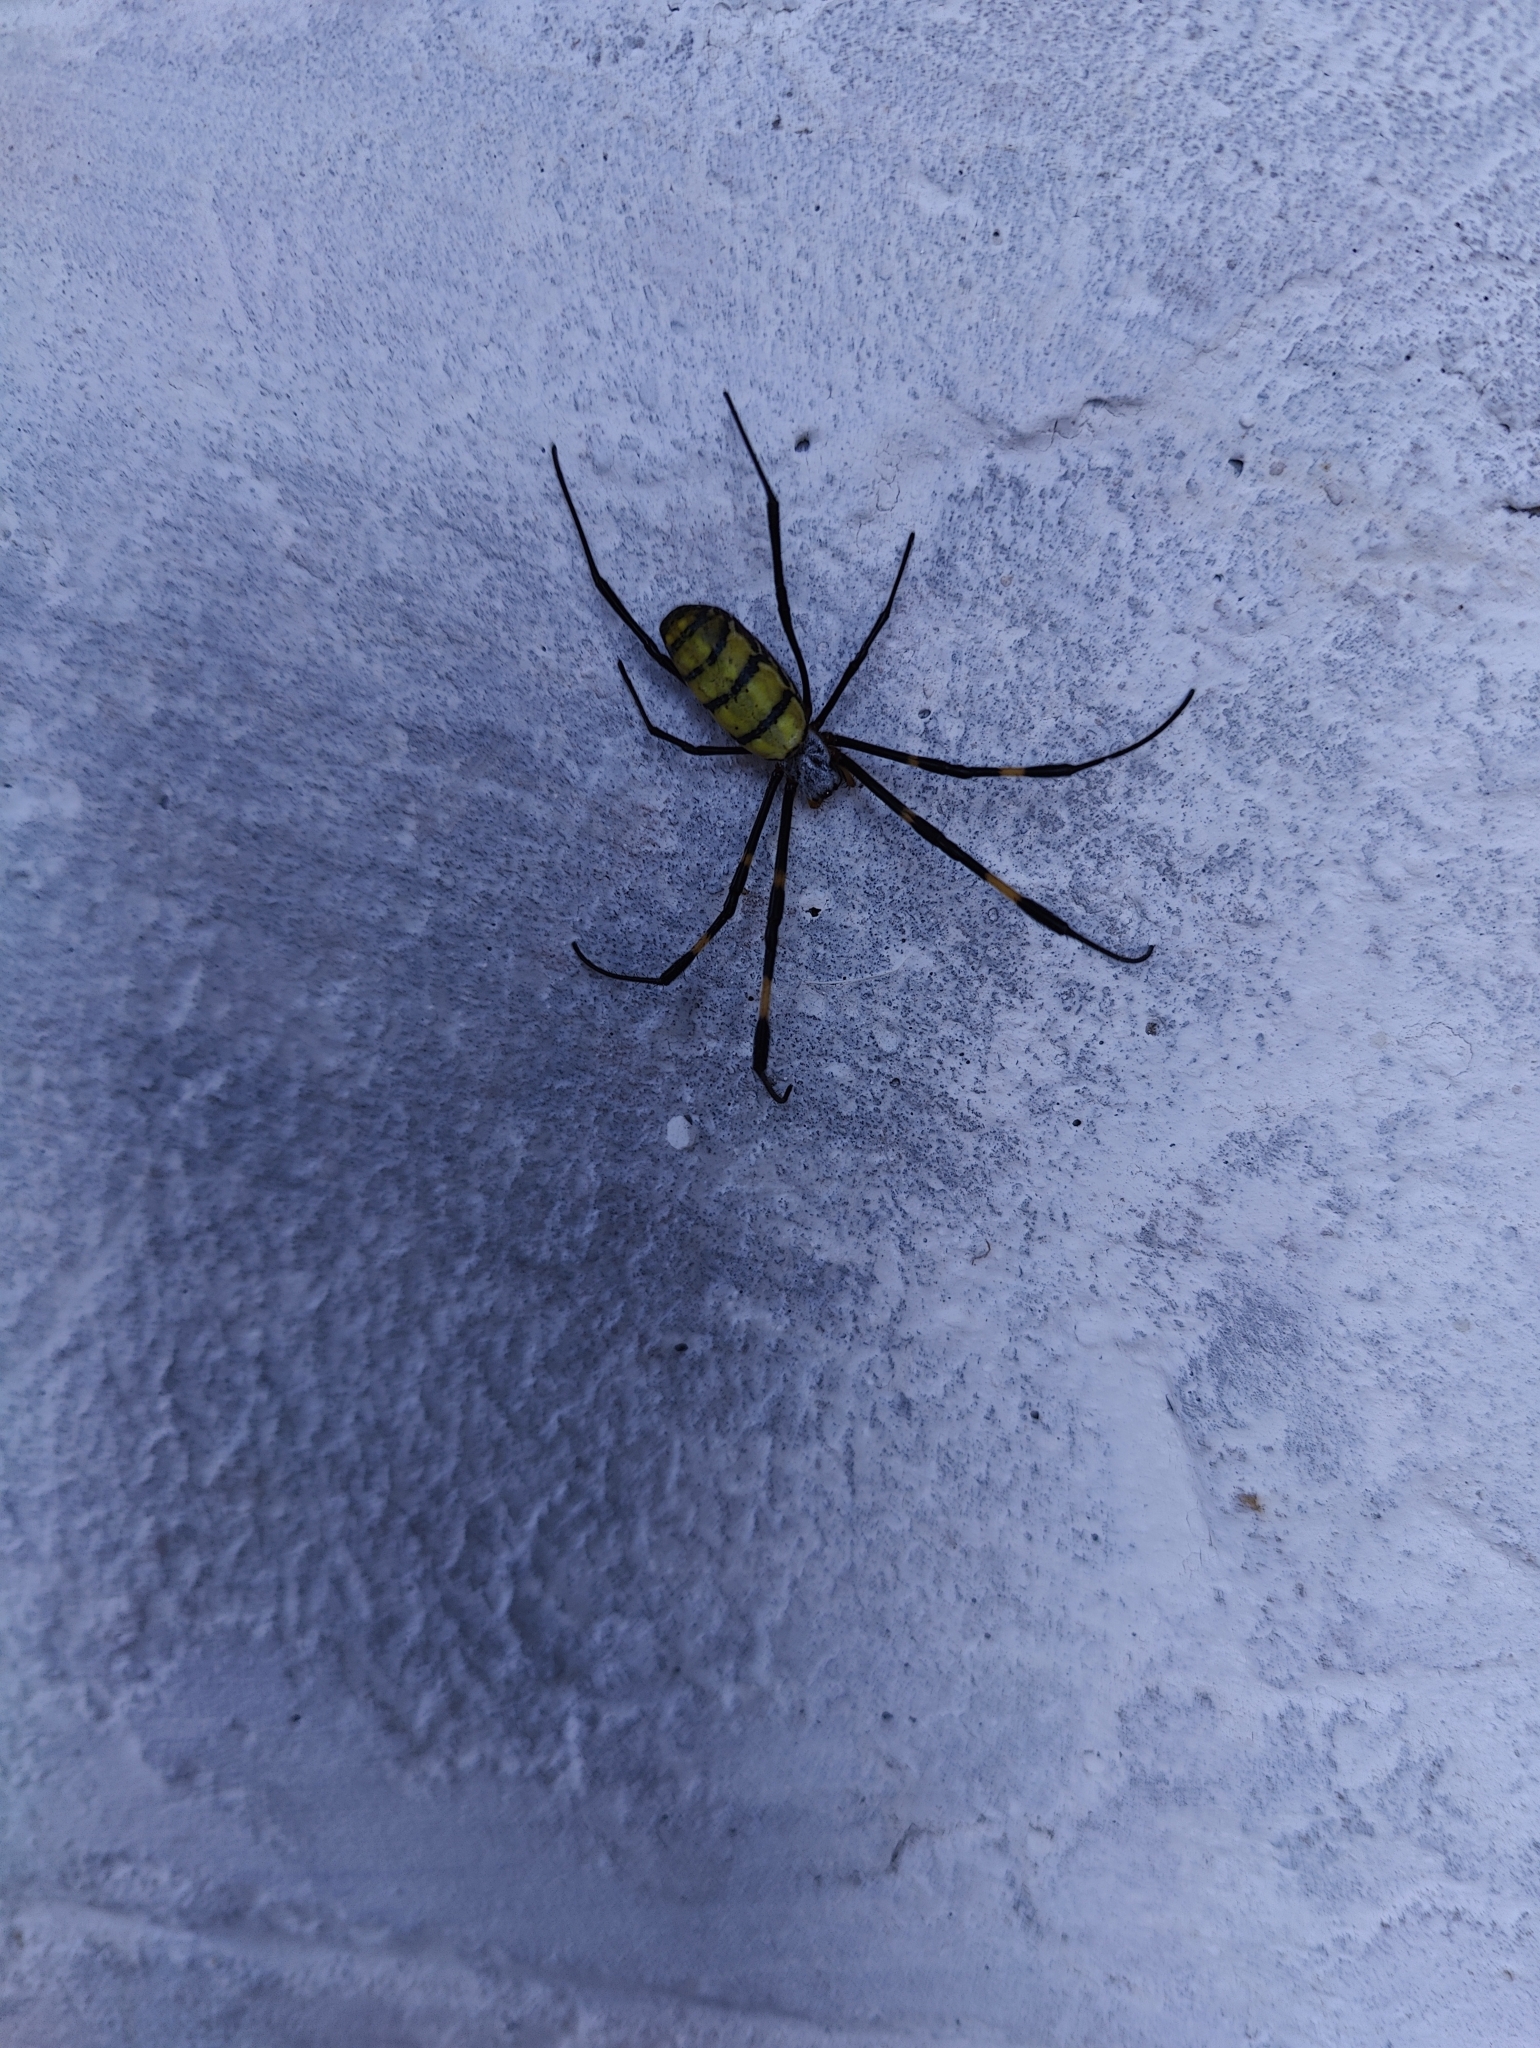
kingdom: Animalia
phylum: Arthropoda
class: Arachnida
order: Araneae
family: Araneidae
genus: Trichonephila
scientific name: Trichonephila clavata
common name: Jorō spider
